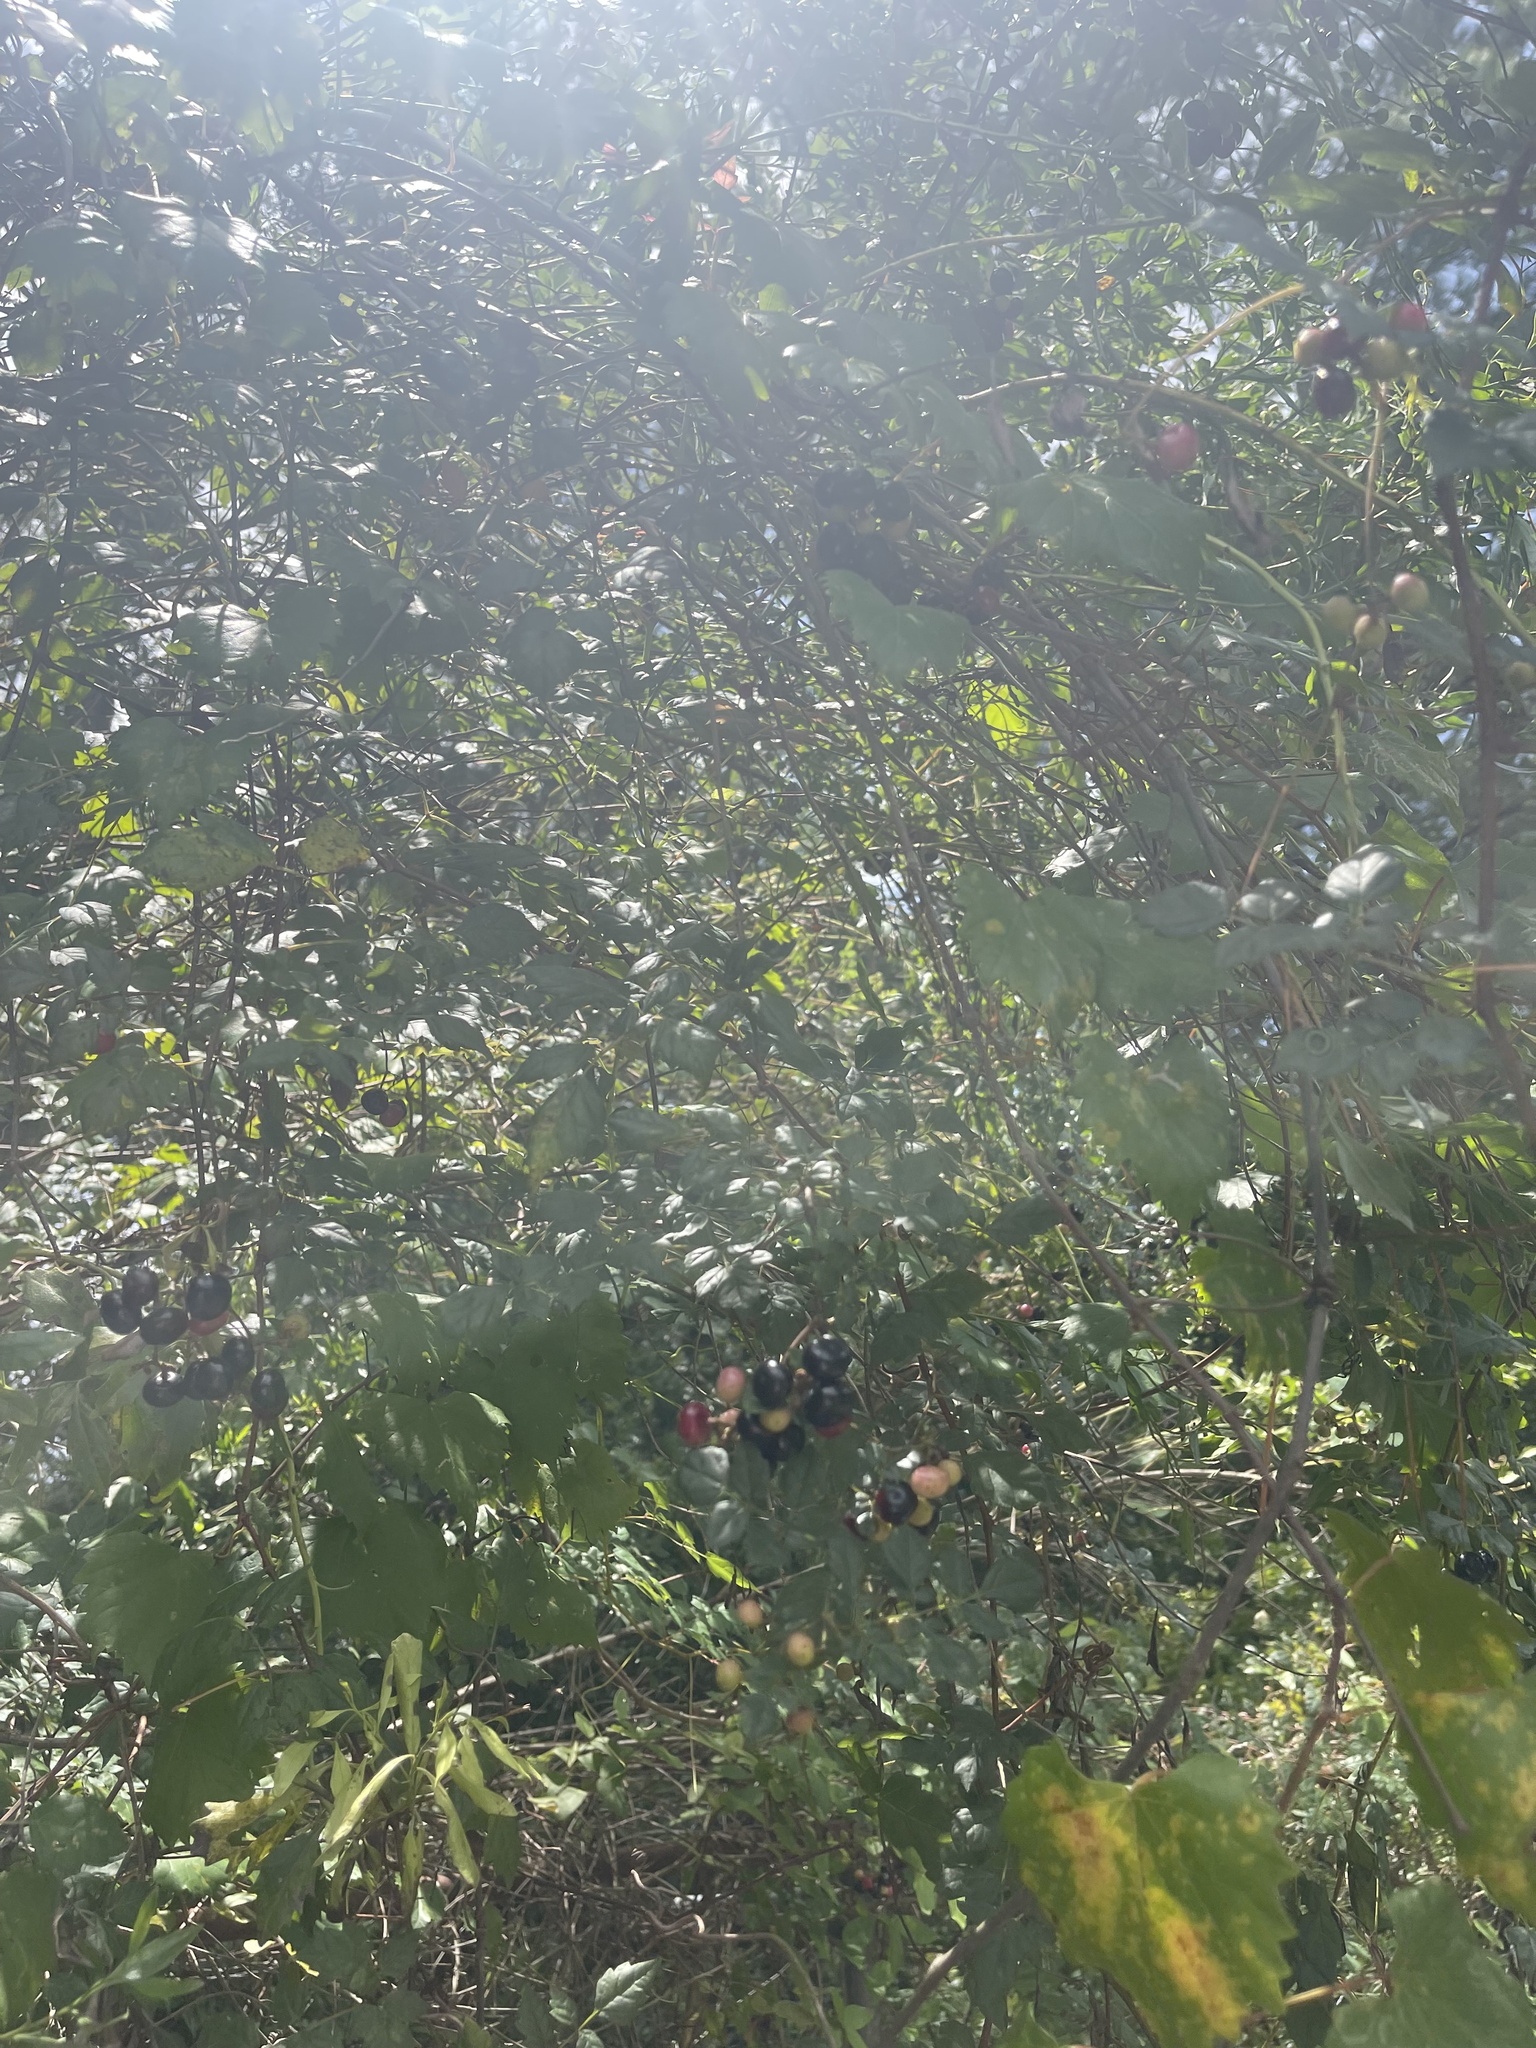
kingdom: Plantae
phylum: Tracheophyta
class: Magnoliopsida
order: Vitales
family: Vitaceae
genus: Nekemias
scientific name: Nekemias arborea
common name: Peppervine
